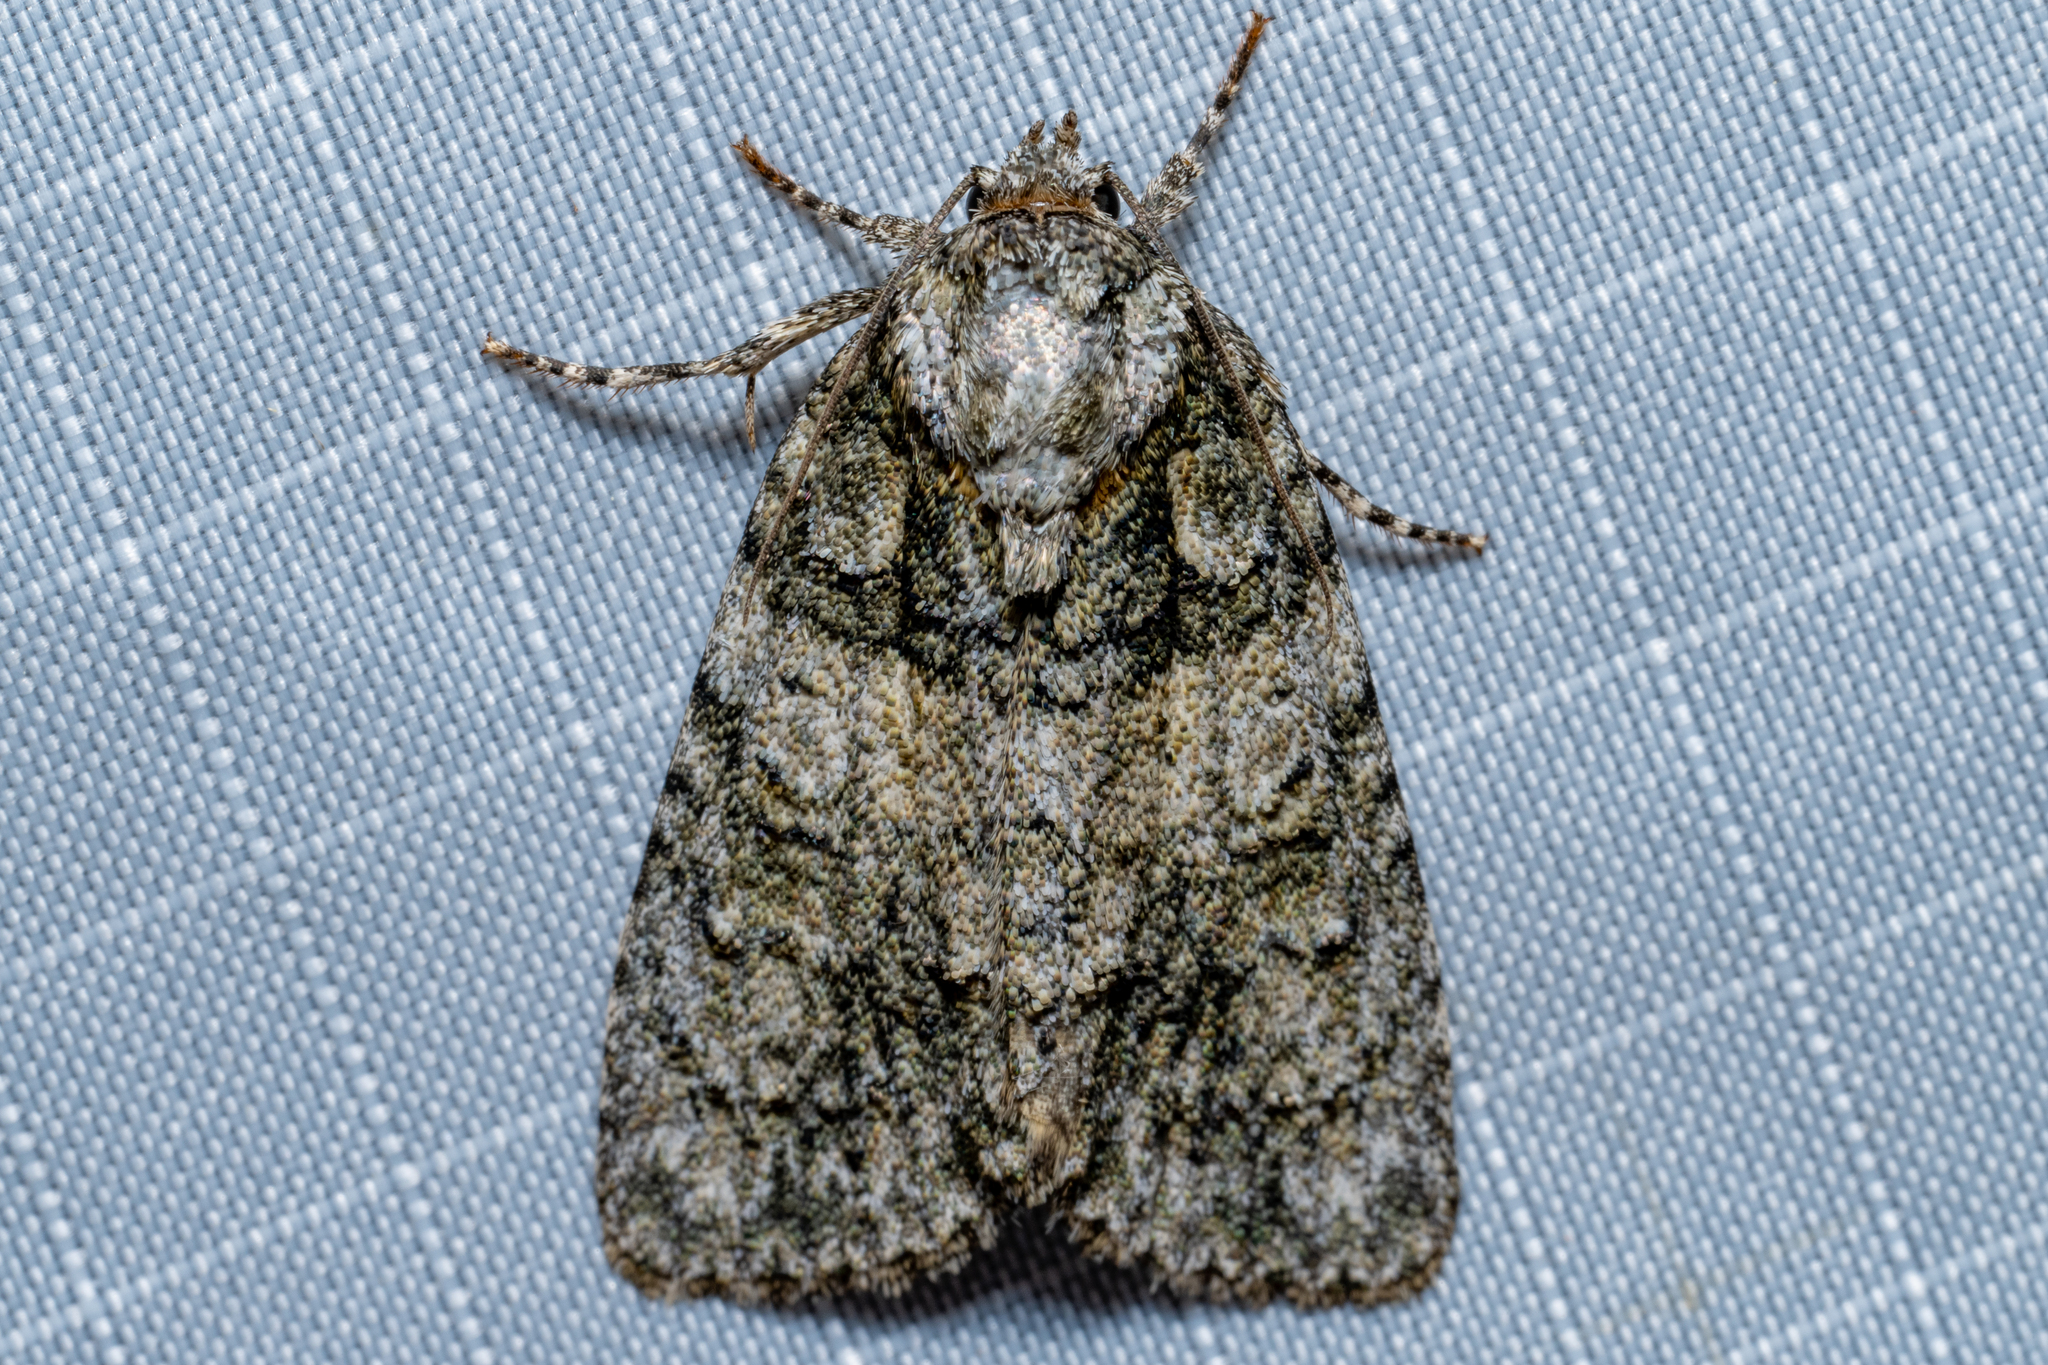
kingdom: Animalia
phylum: Arthropoda
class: Insecta
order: Lepidoptera
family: Noctuidae
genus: Acronicta
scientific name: Acronicta retardata
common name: Maple dagger
